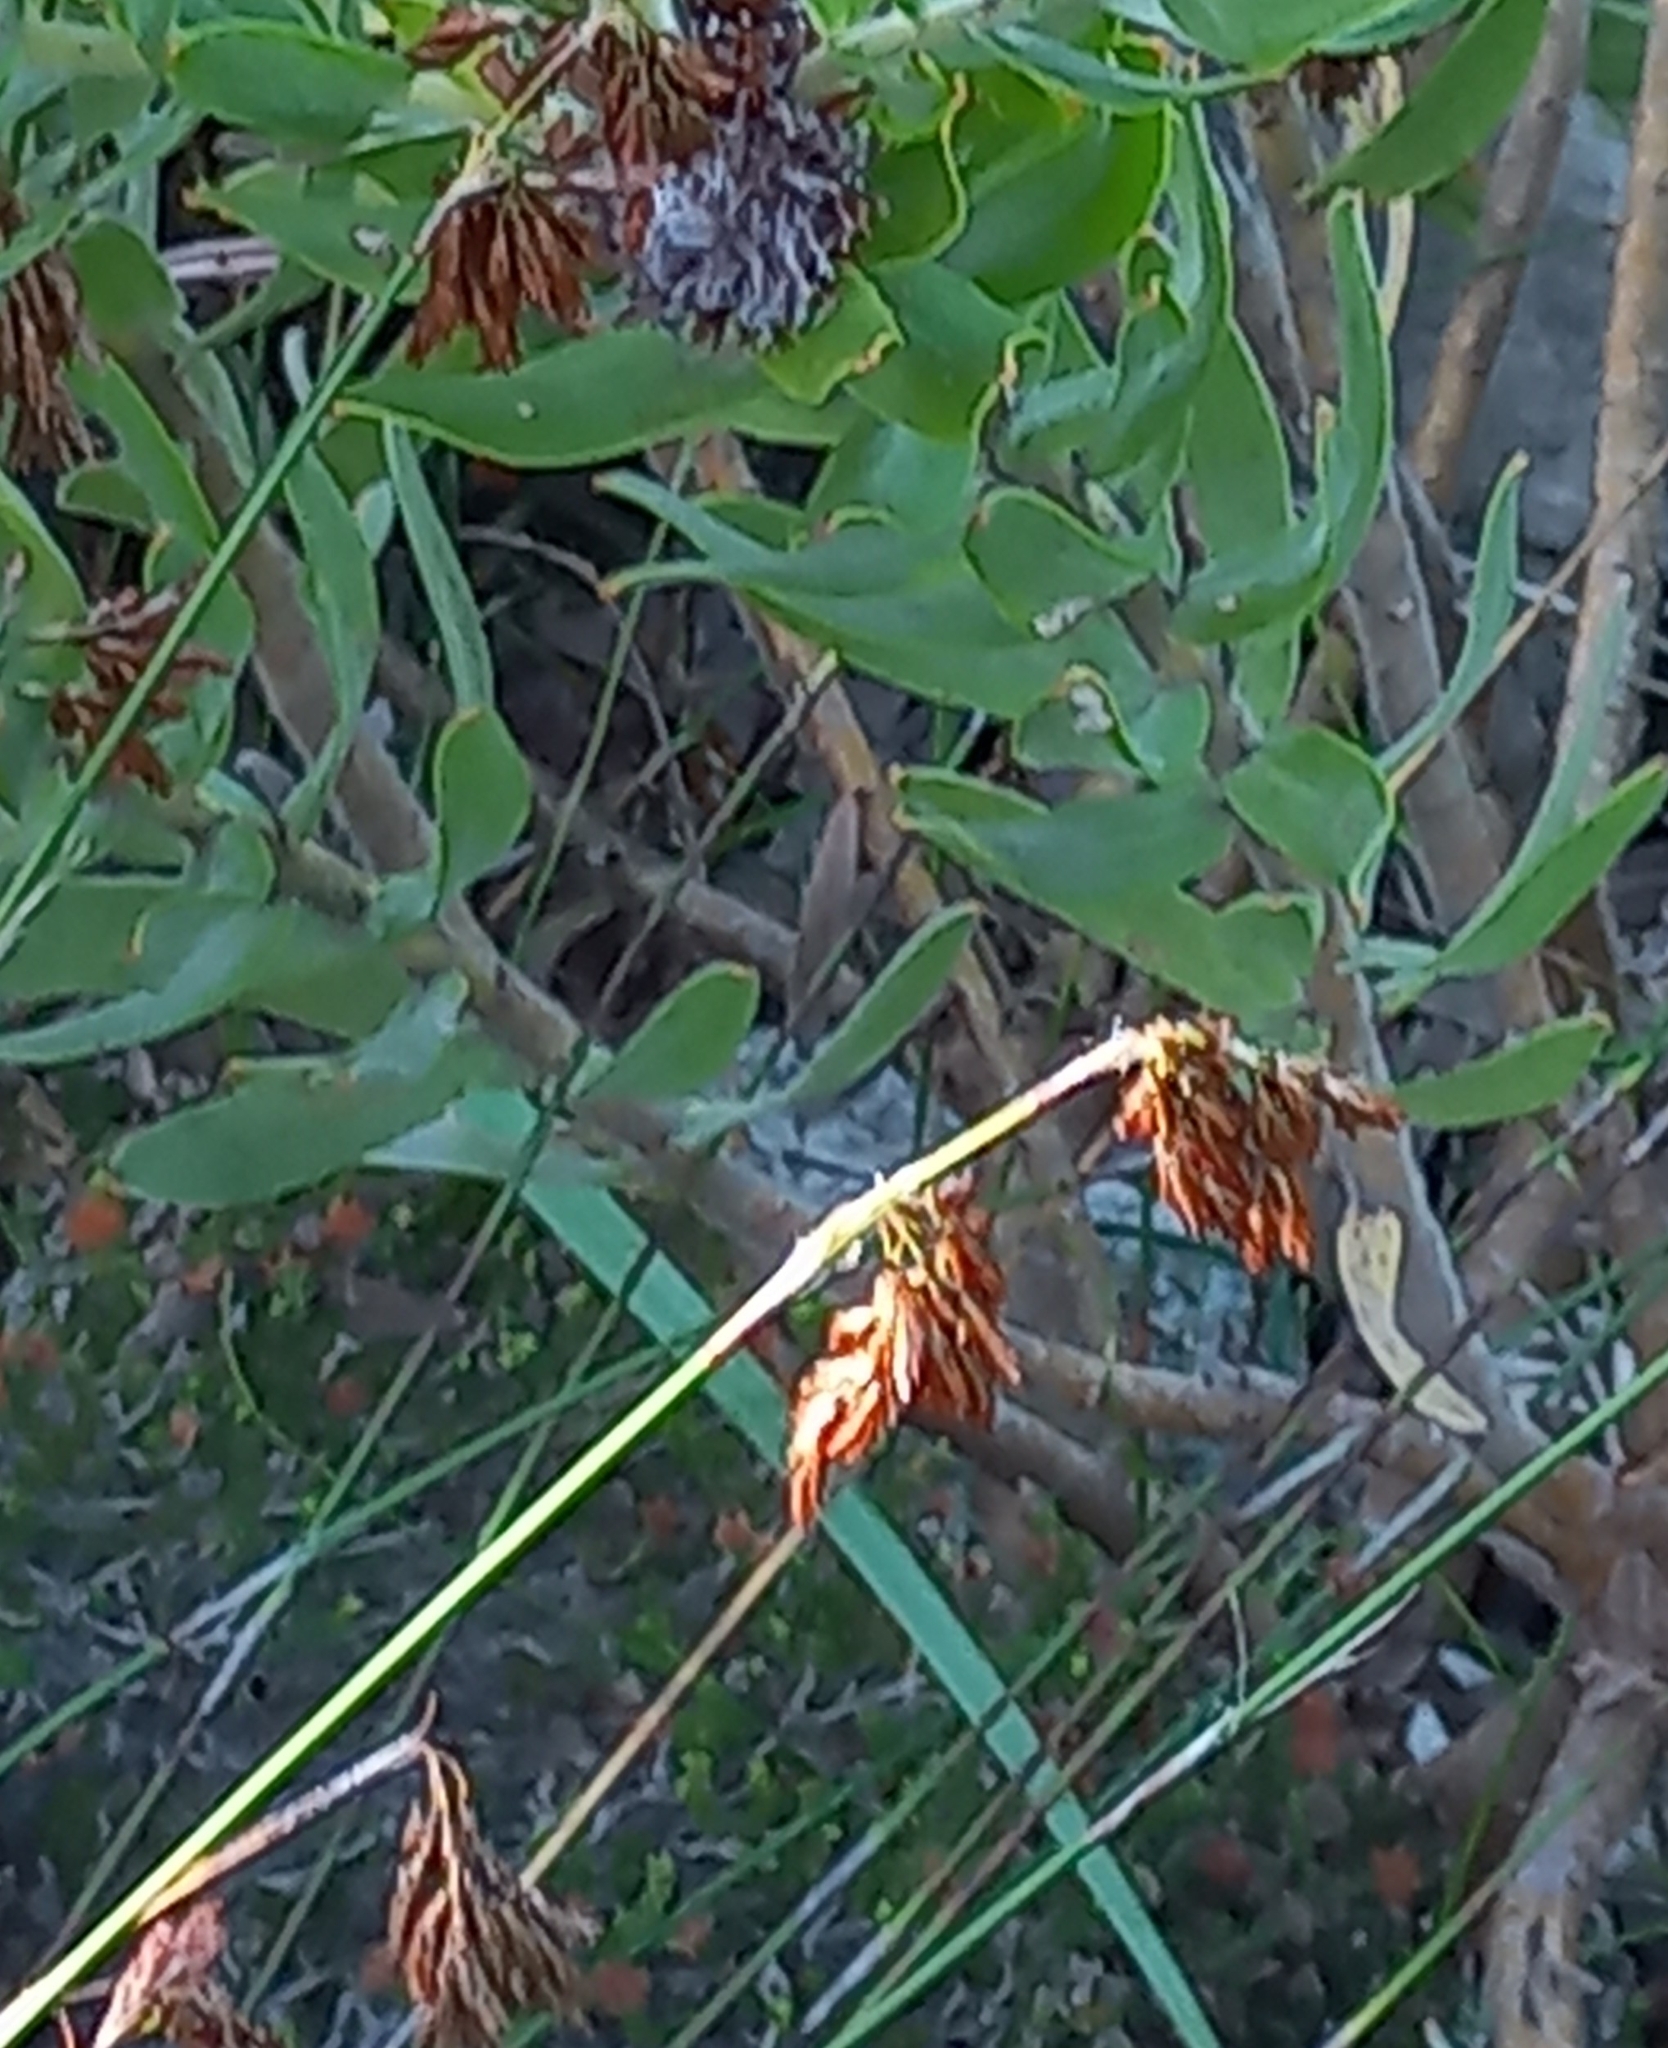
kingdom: Plantae
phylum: Tracheophyta
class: Liliopsida
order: Poales
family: Restionaceae
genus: Thamnochortus
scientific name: Thamnochortus lucens
